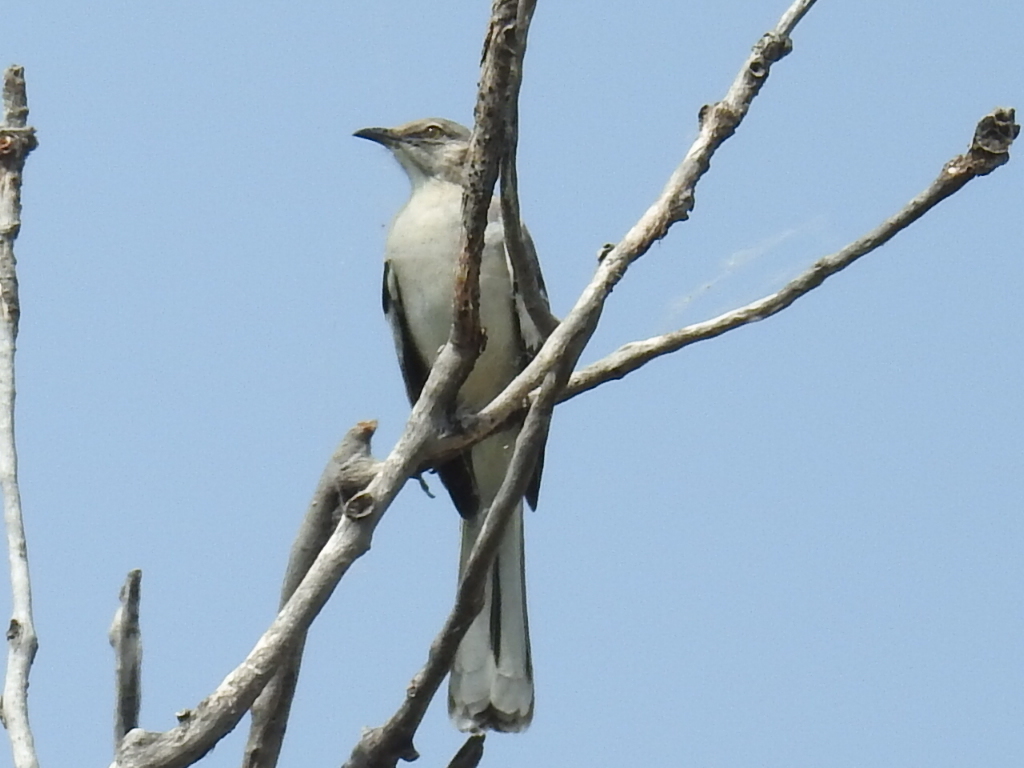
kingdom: Animalia
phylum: Chordata
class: Aves
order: Passeriformes
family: Mimidae
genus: Mimus
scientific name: Mimus polyglottos
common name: Northern mockingbird
